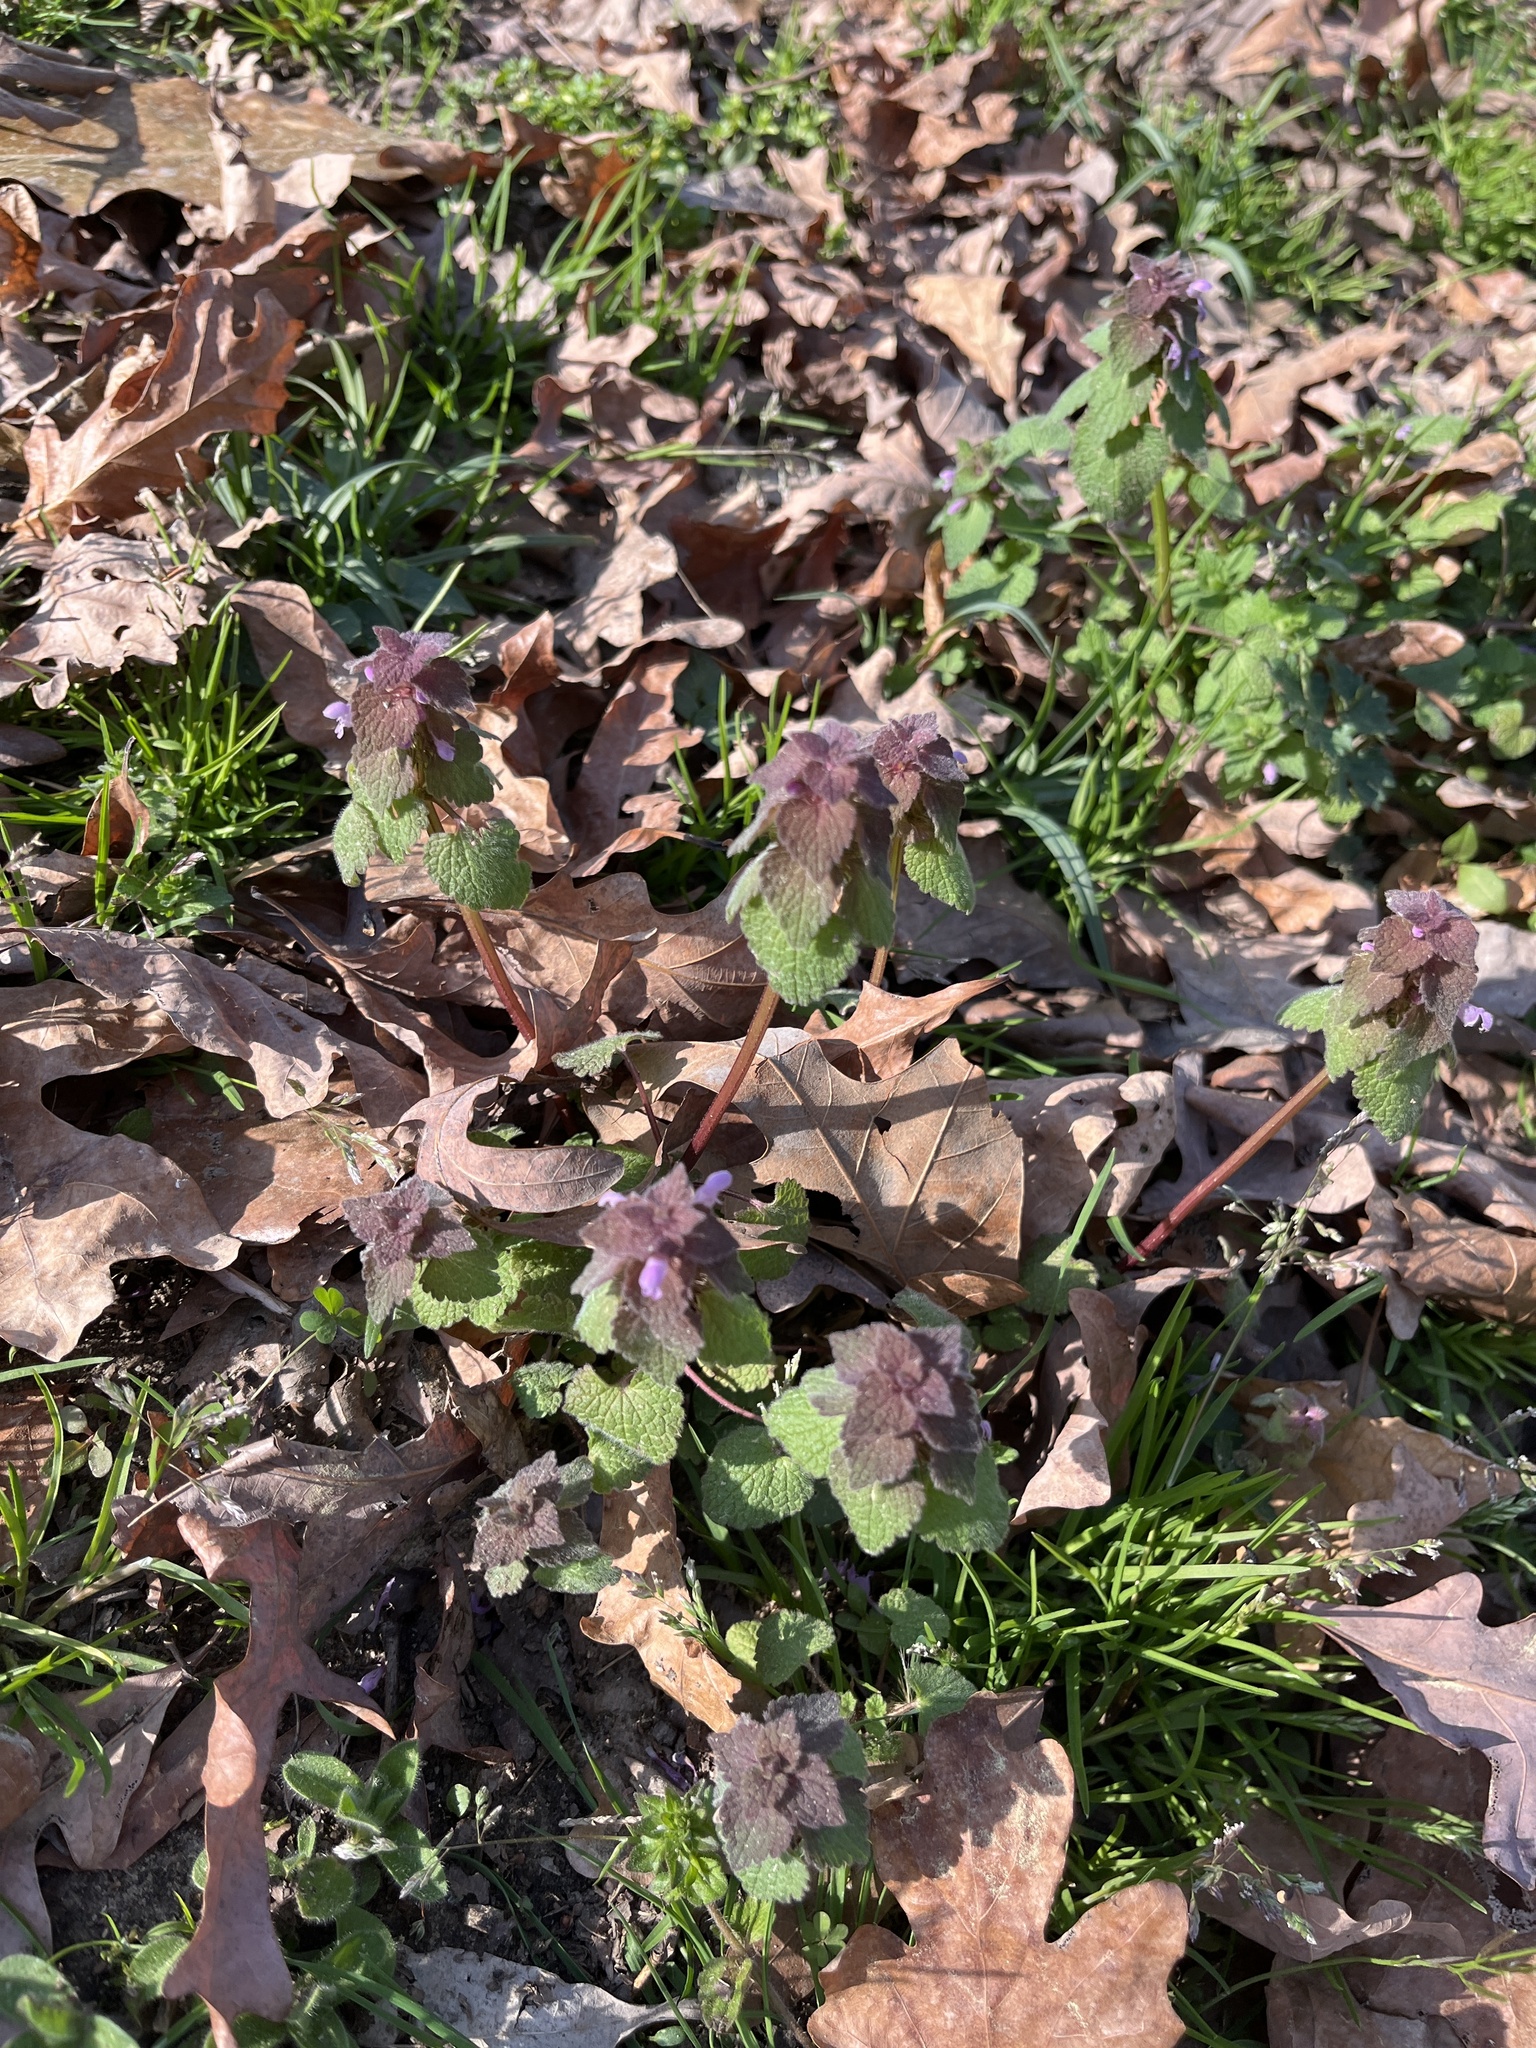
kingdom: Plantae
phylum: Tracheophyta
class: Magnoliopsida
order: Lamiales
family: Lamiaceae
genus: Lamium
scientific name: Lamium purpureum
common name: Red dead-nettle
